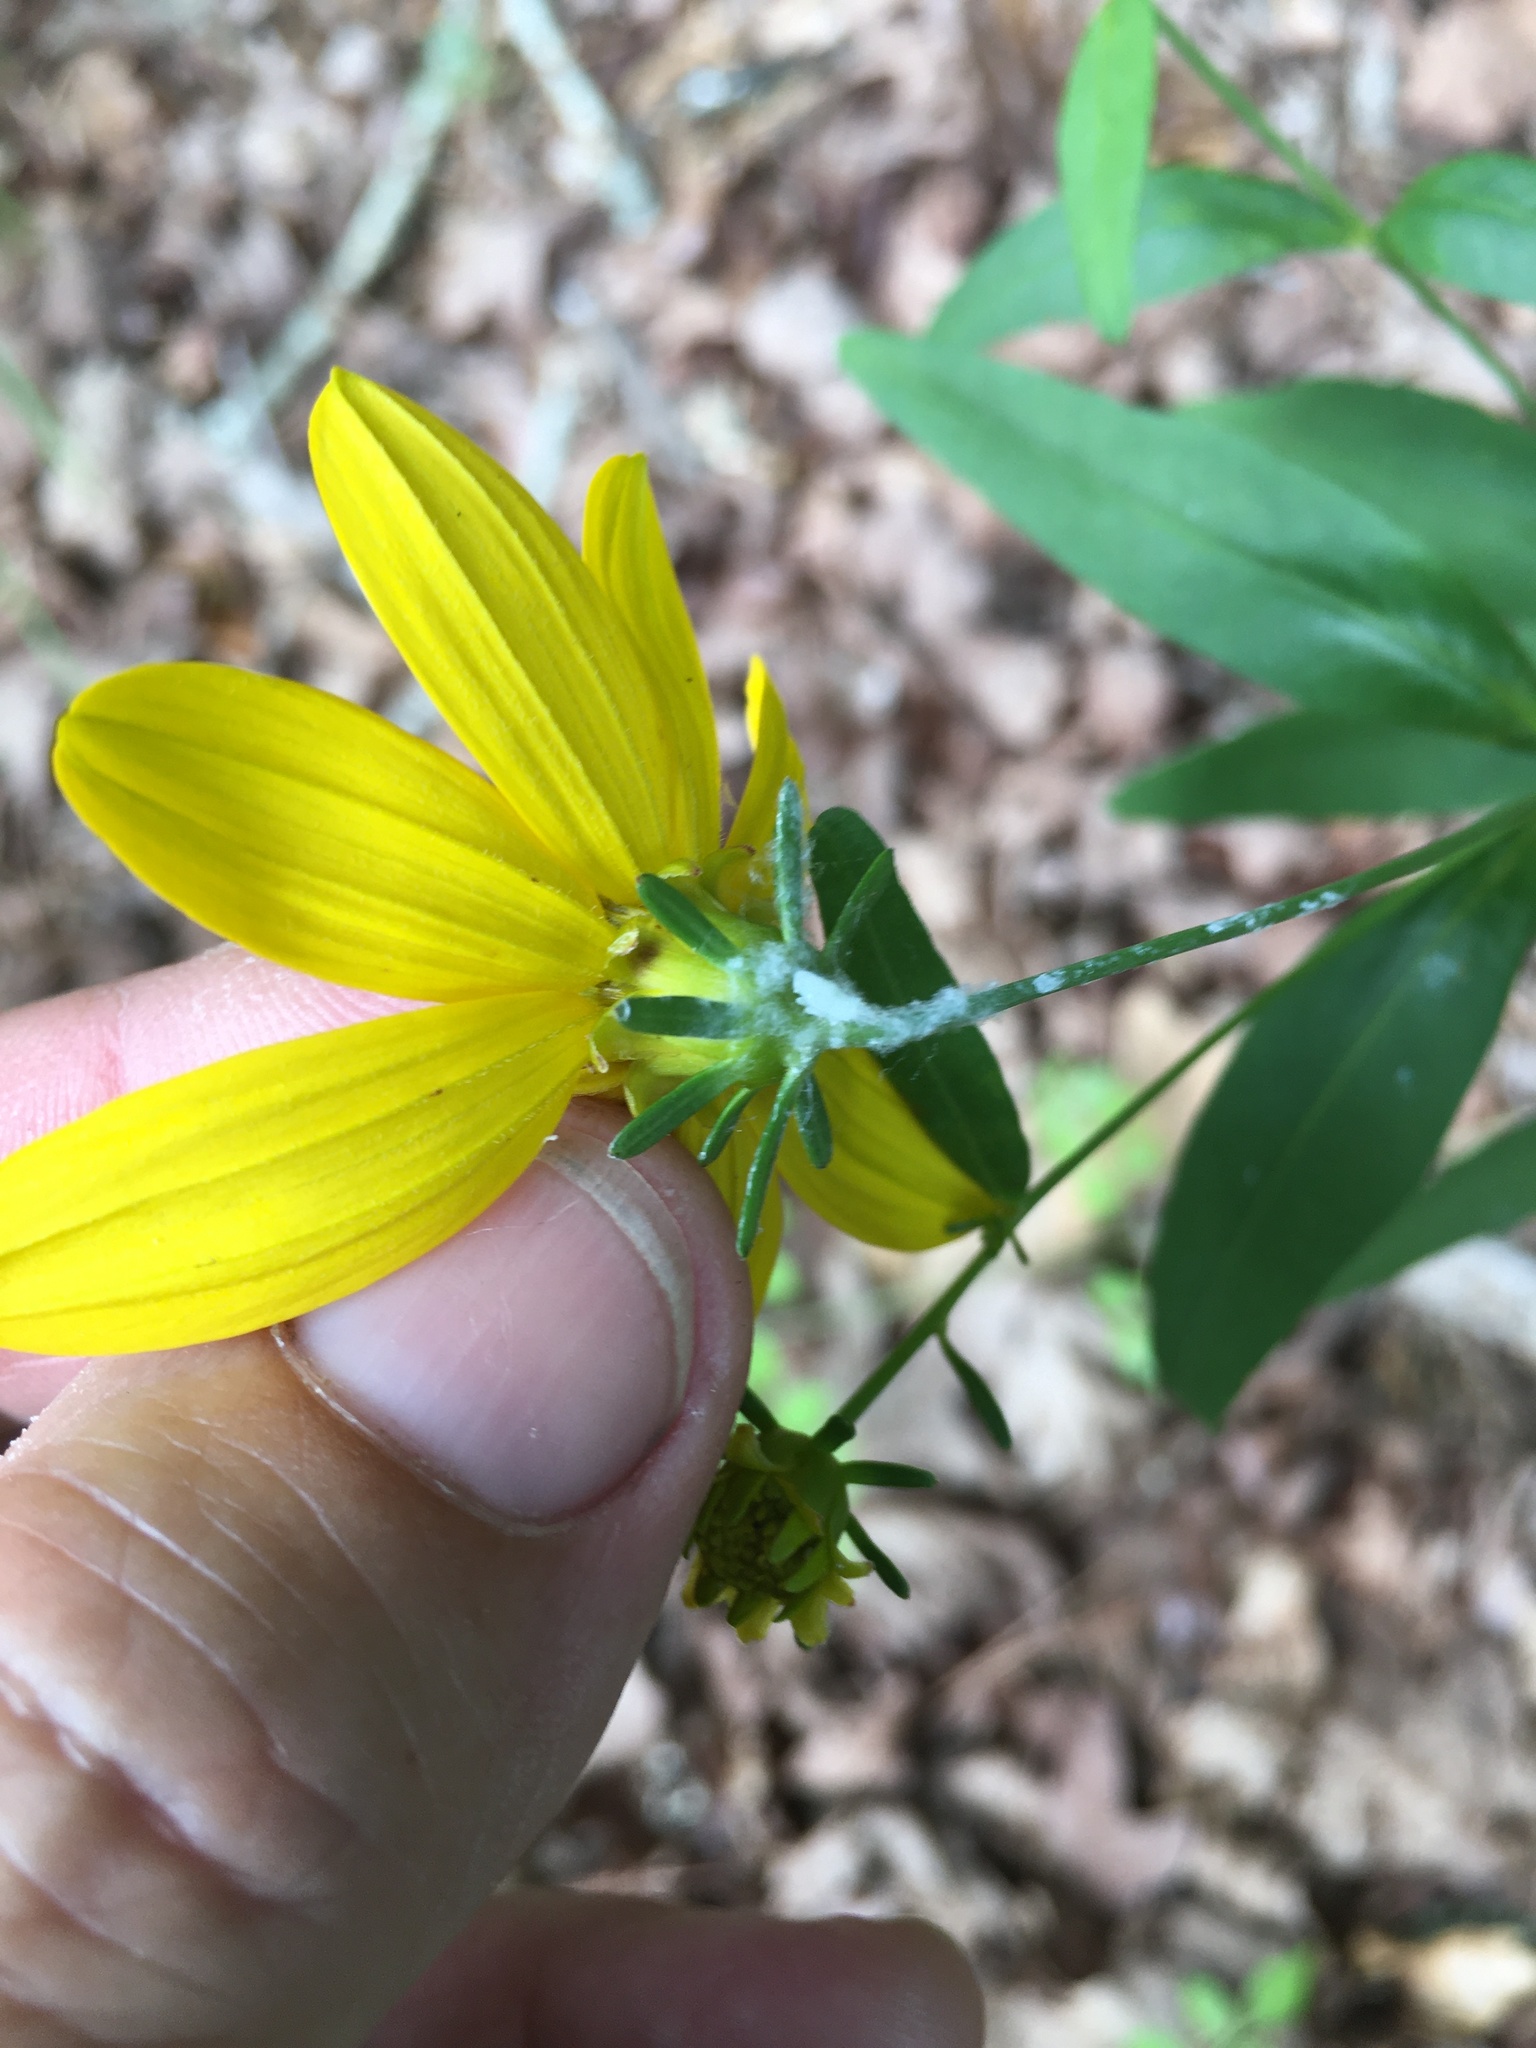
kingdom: Plantae
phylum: Tracheophyta
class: Magnoliopsida
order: Asterales
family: Asteraceae
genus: Coreopsis
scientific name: Coreopsis major
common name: Forest tickseed
